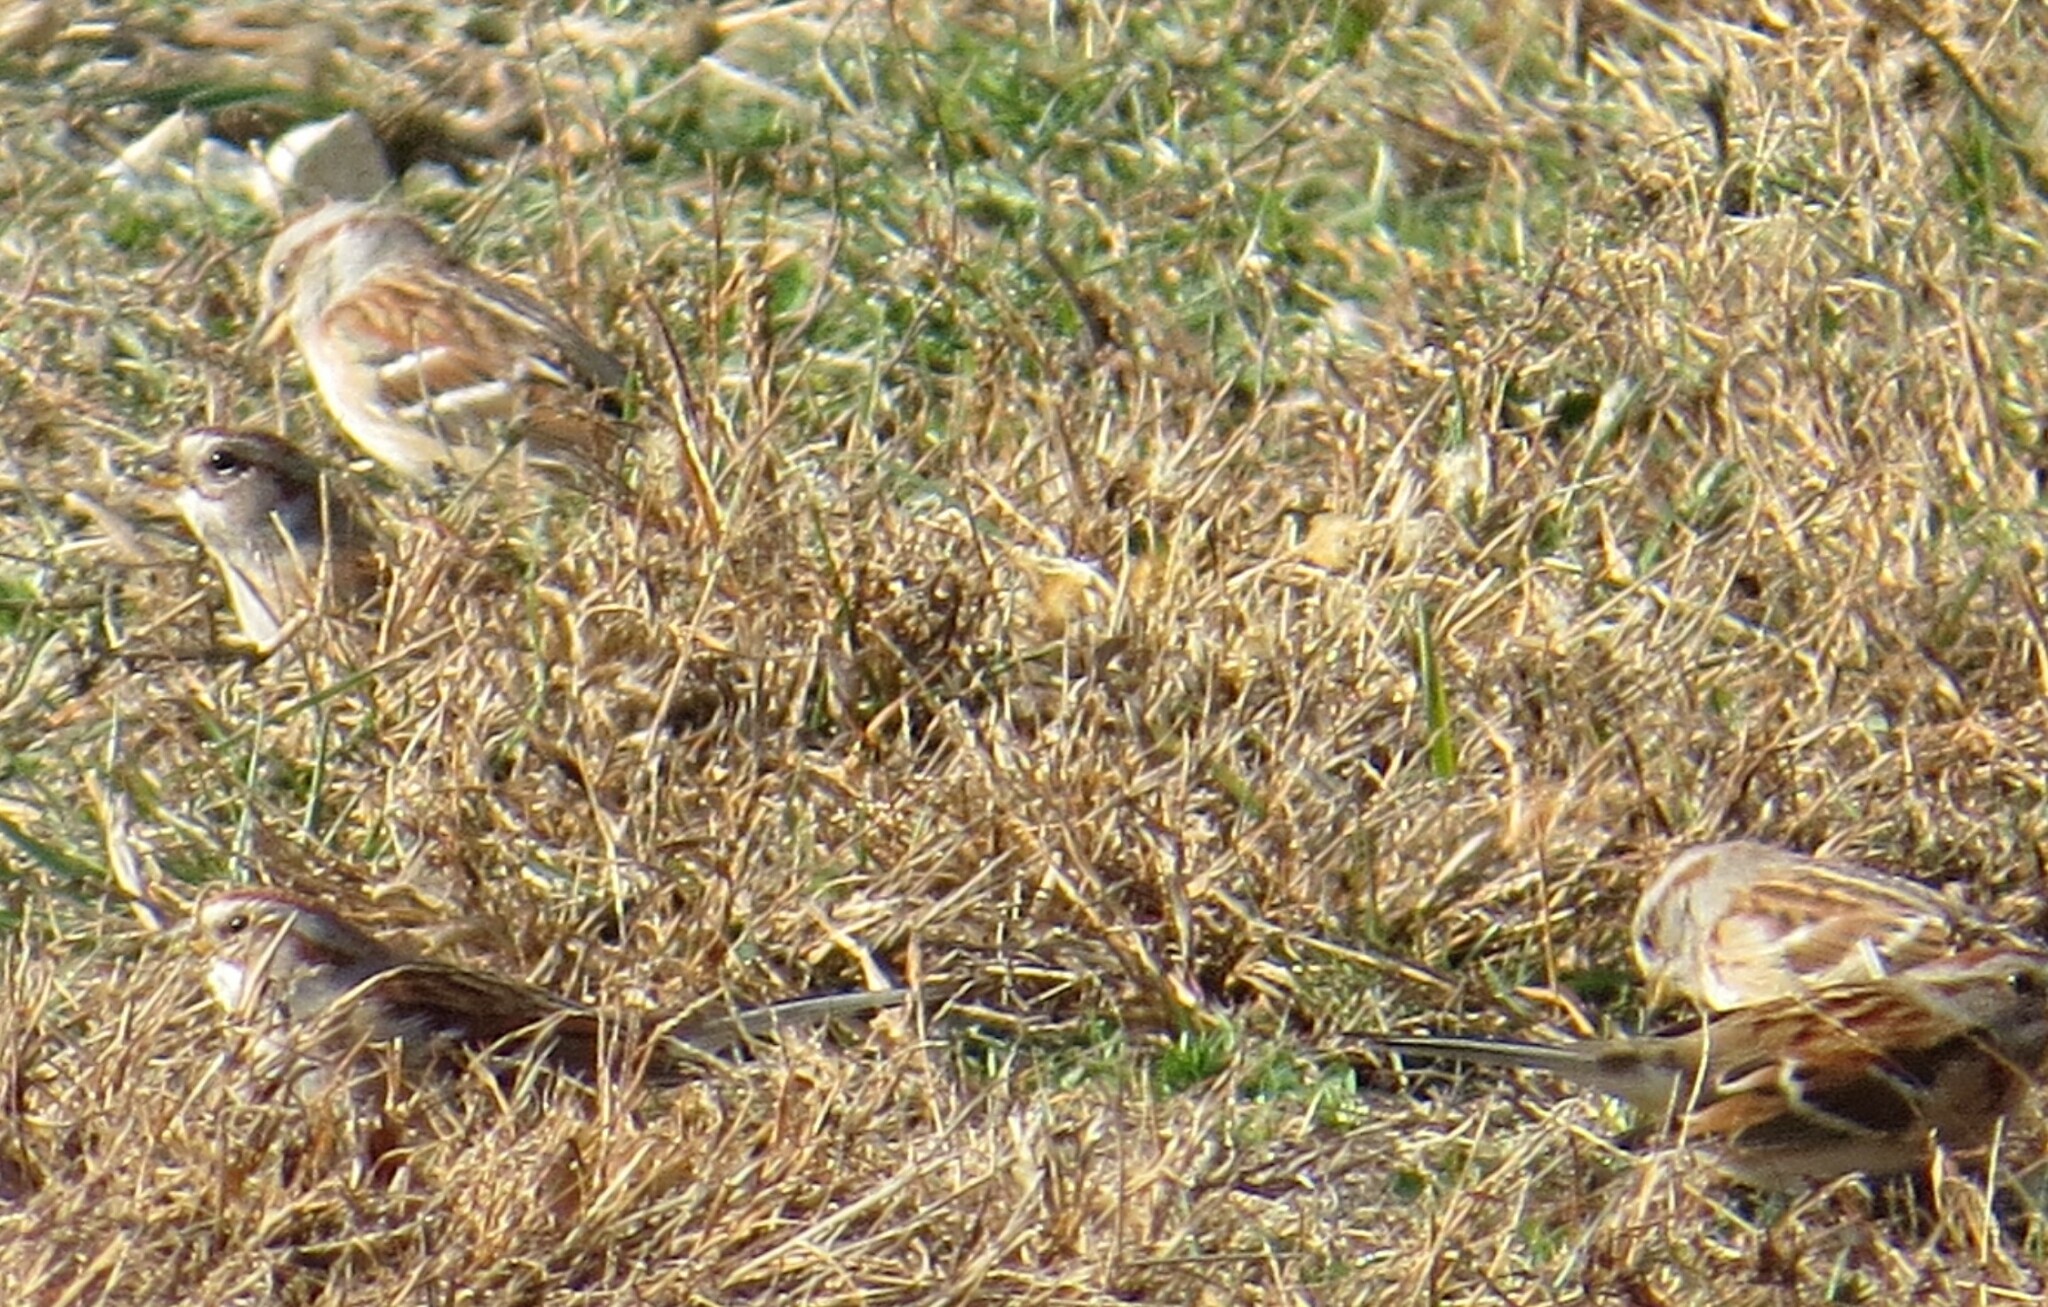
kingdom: Animalia
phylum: Chordata
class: Aves
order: Passeriformes
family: Passerellidae
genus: Spizelloides
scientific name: Spizelloides arborea
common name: American tree sparrow
